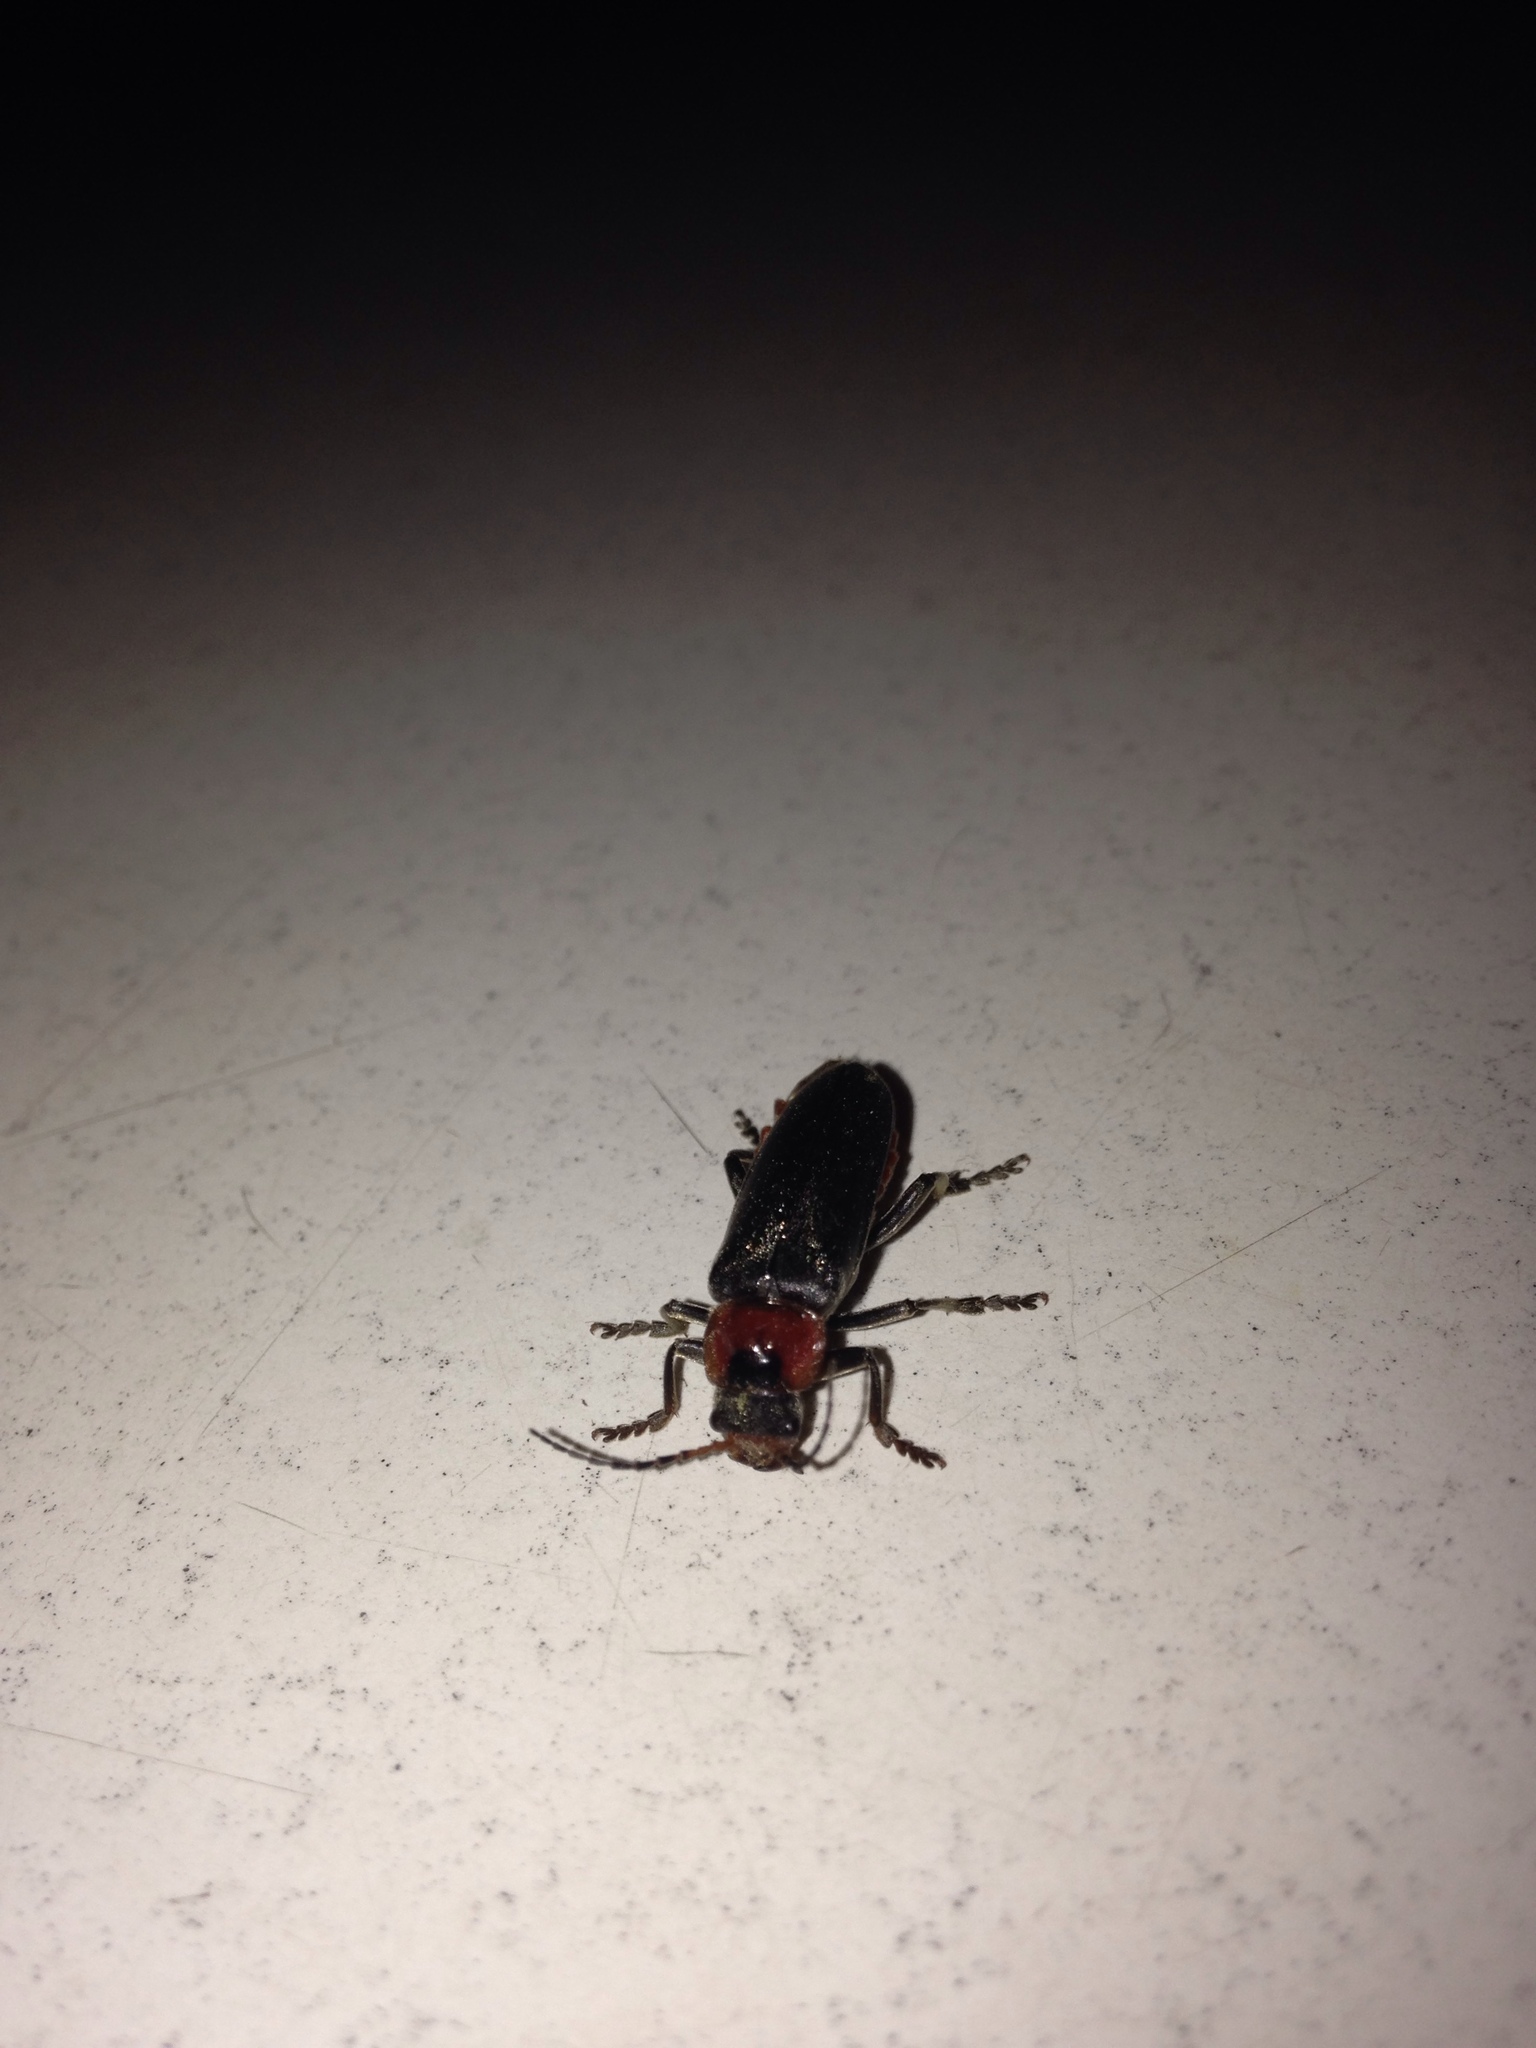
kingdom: Animalia
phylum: Arthropoda
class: Insecta
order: Coleoptera
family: Cantharidae
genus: Cantharis
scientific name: Cantharis fusca
